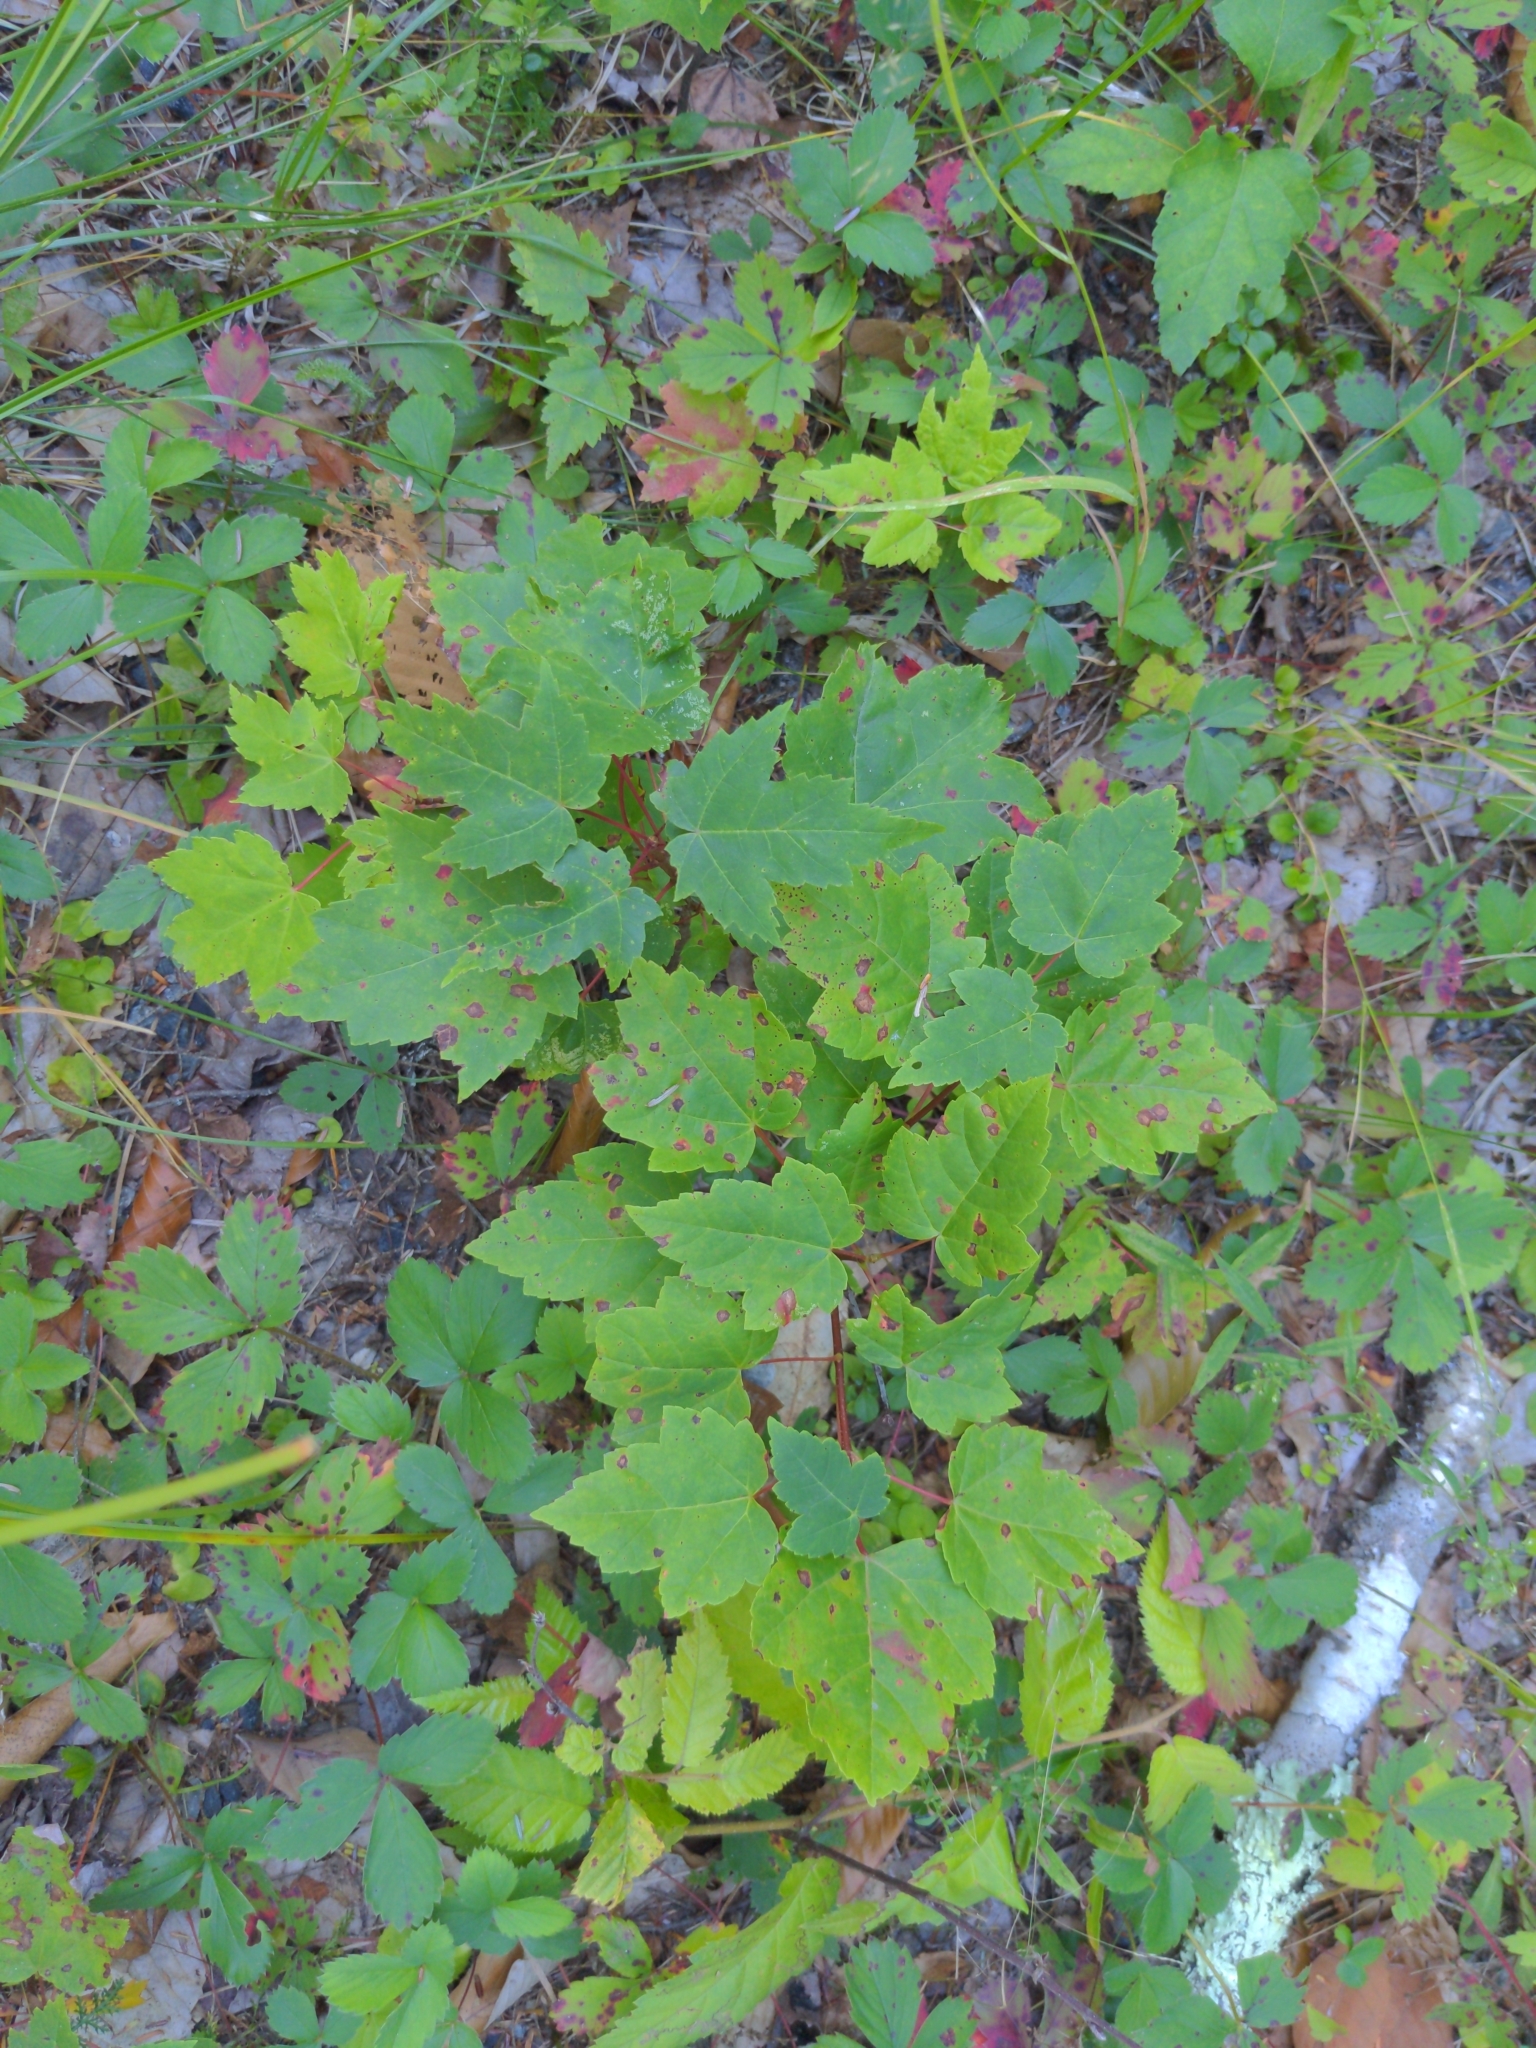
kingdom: Plantae
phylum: Tracheophyta
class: Magnoliopsida
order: Sapindales
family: Sapindaceae
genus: Acer
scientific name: Acer rubrum
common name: Red maple
